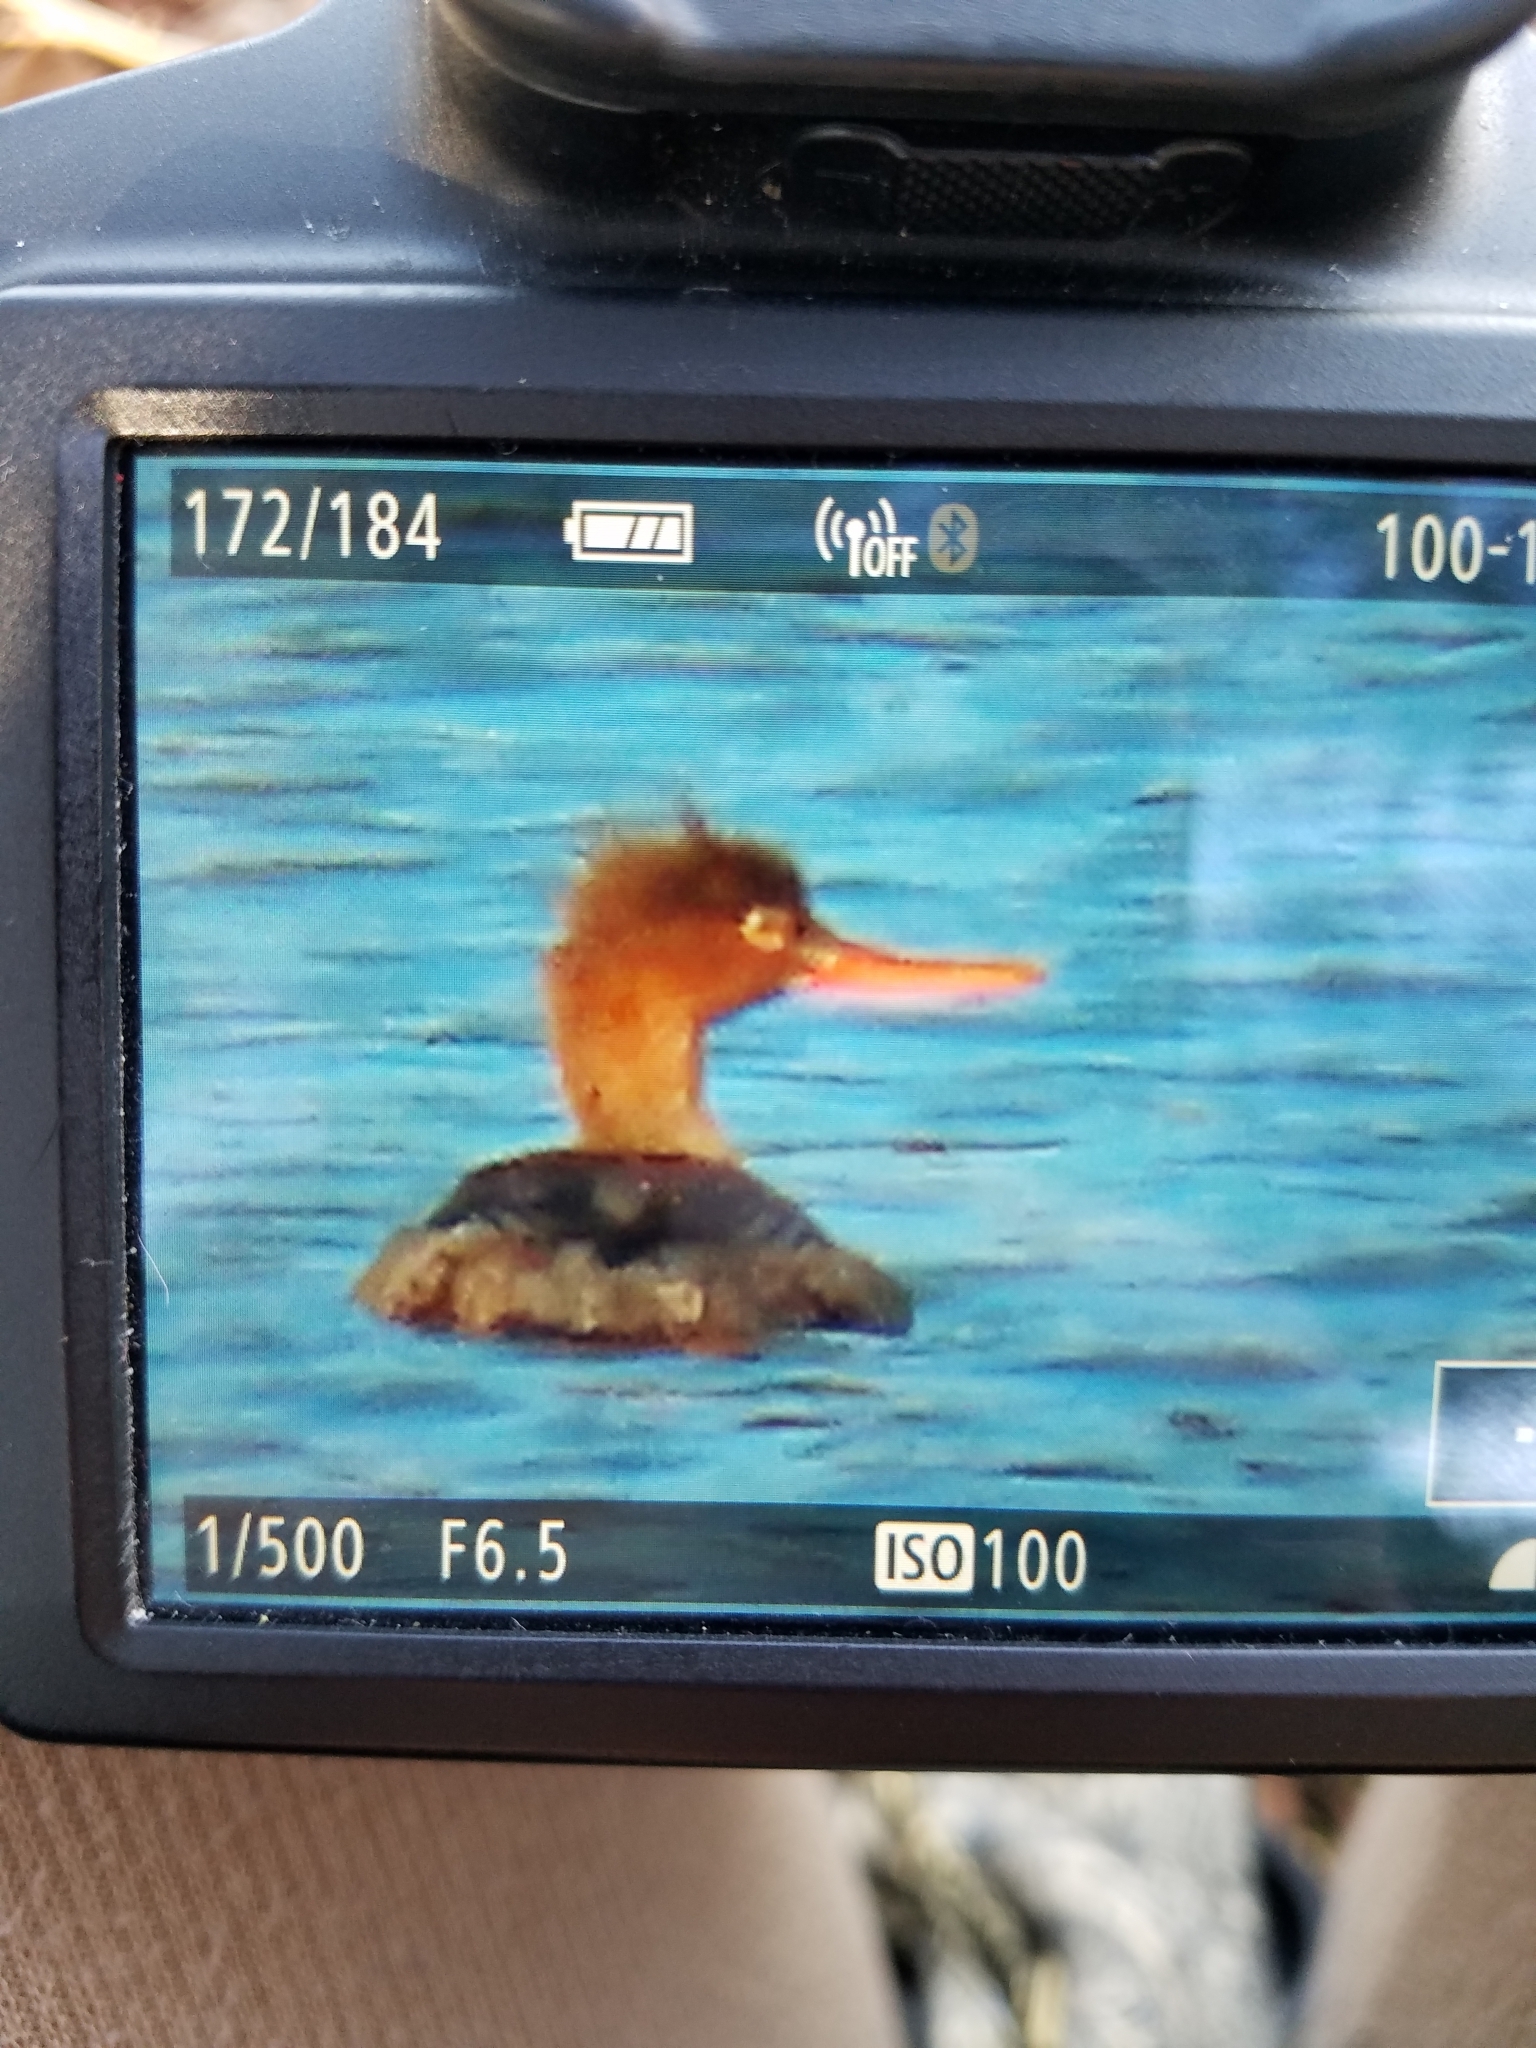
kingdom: Animalia
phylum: Chordata
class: Aves
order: Anseriformes
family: Anatidae
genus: Mergus
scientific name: Mergus serrator
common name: Red-breasted merganser
